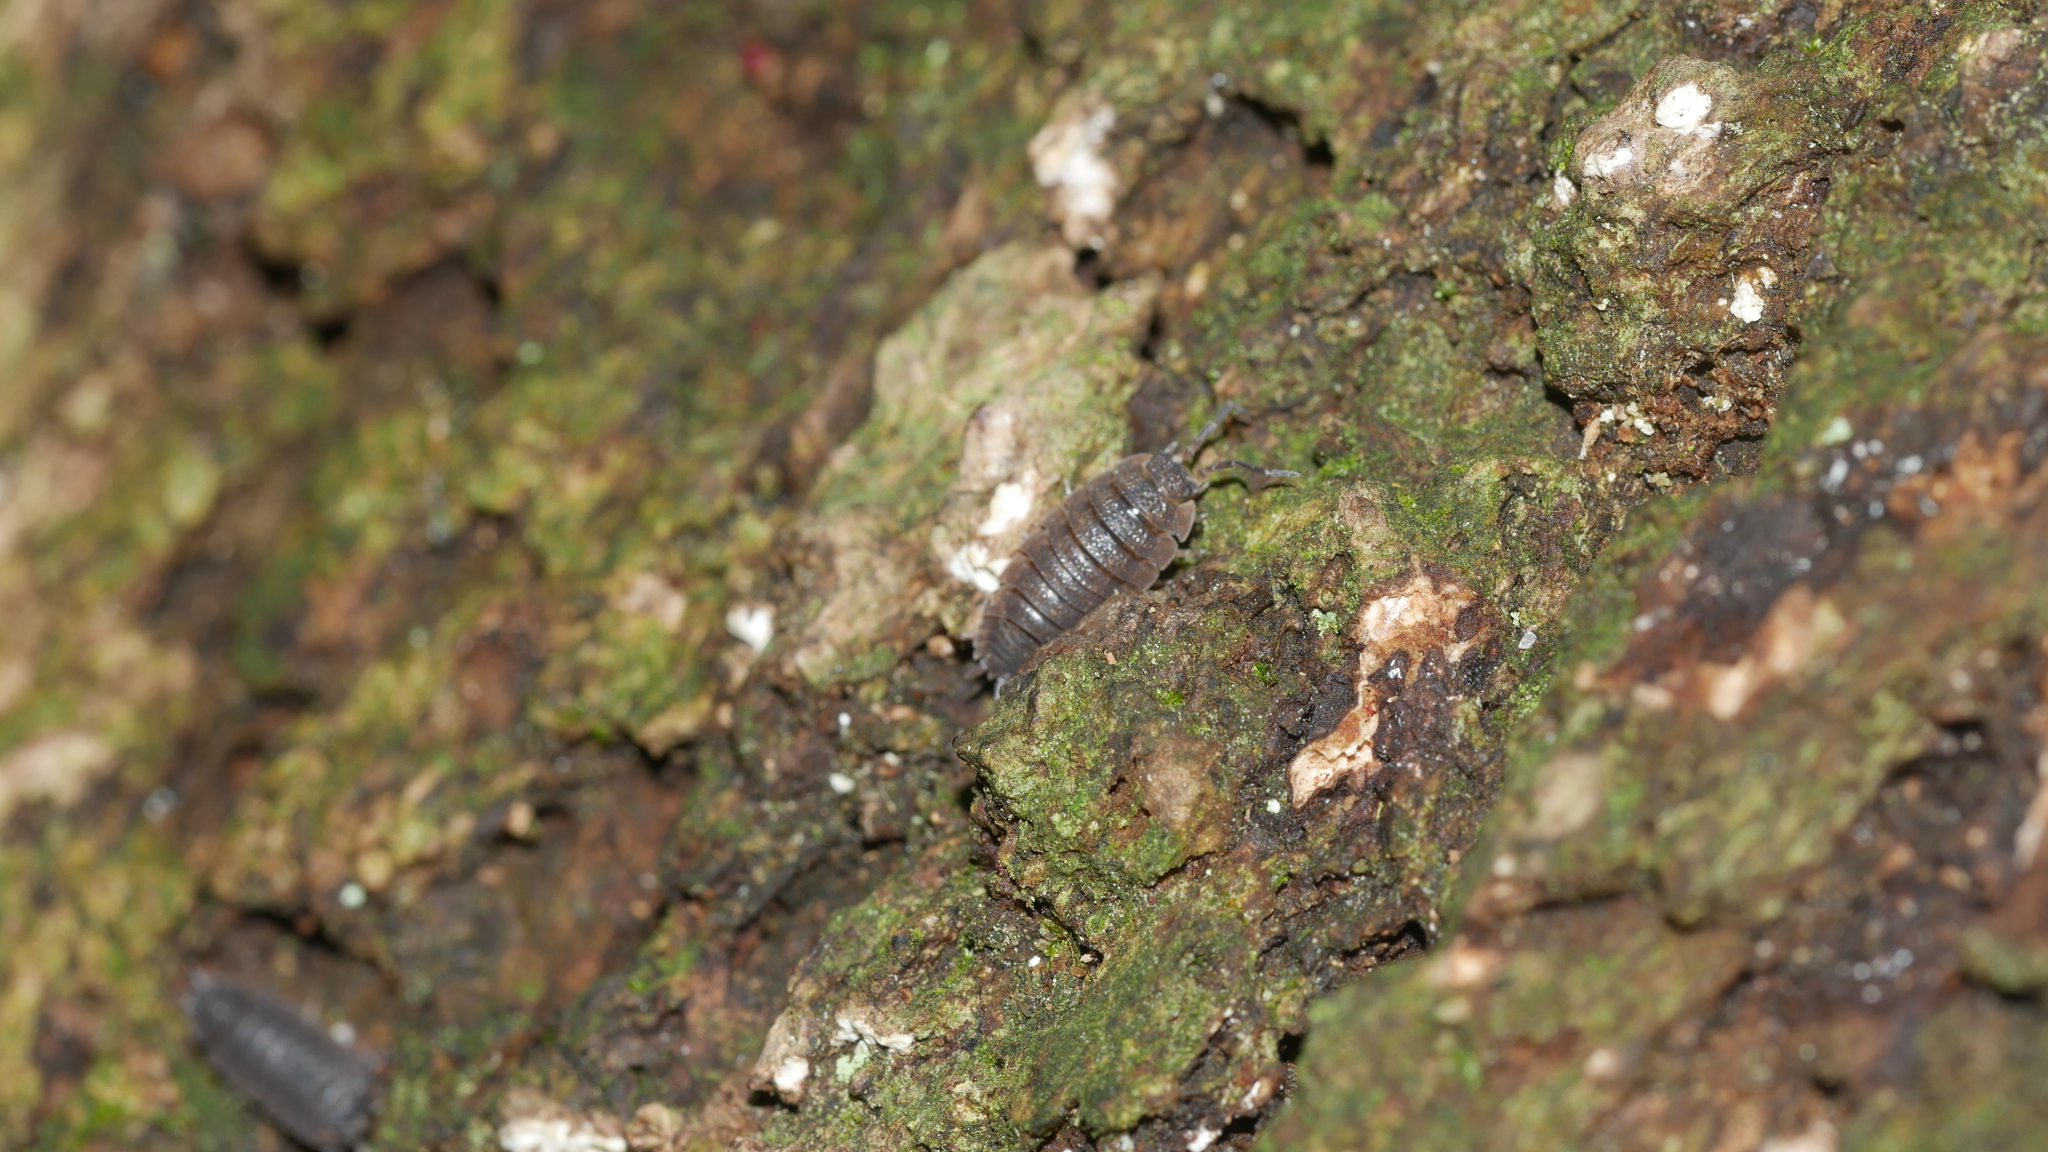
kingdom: Animalia
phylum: Arthropoda
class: Malacostraca
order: Isopoda
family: Porcellionidae
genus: Porcellio
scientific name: Porcellio scaber
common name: Common rough woodlouse
